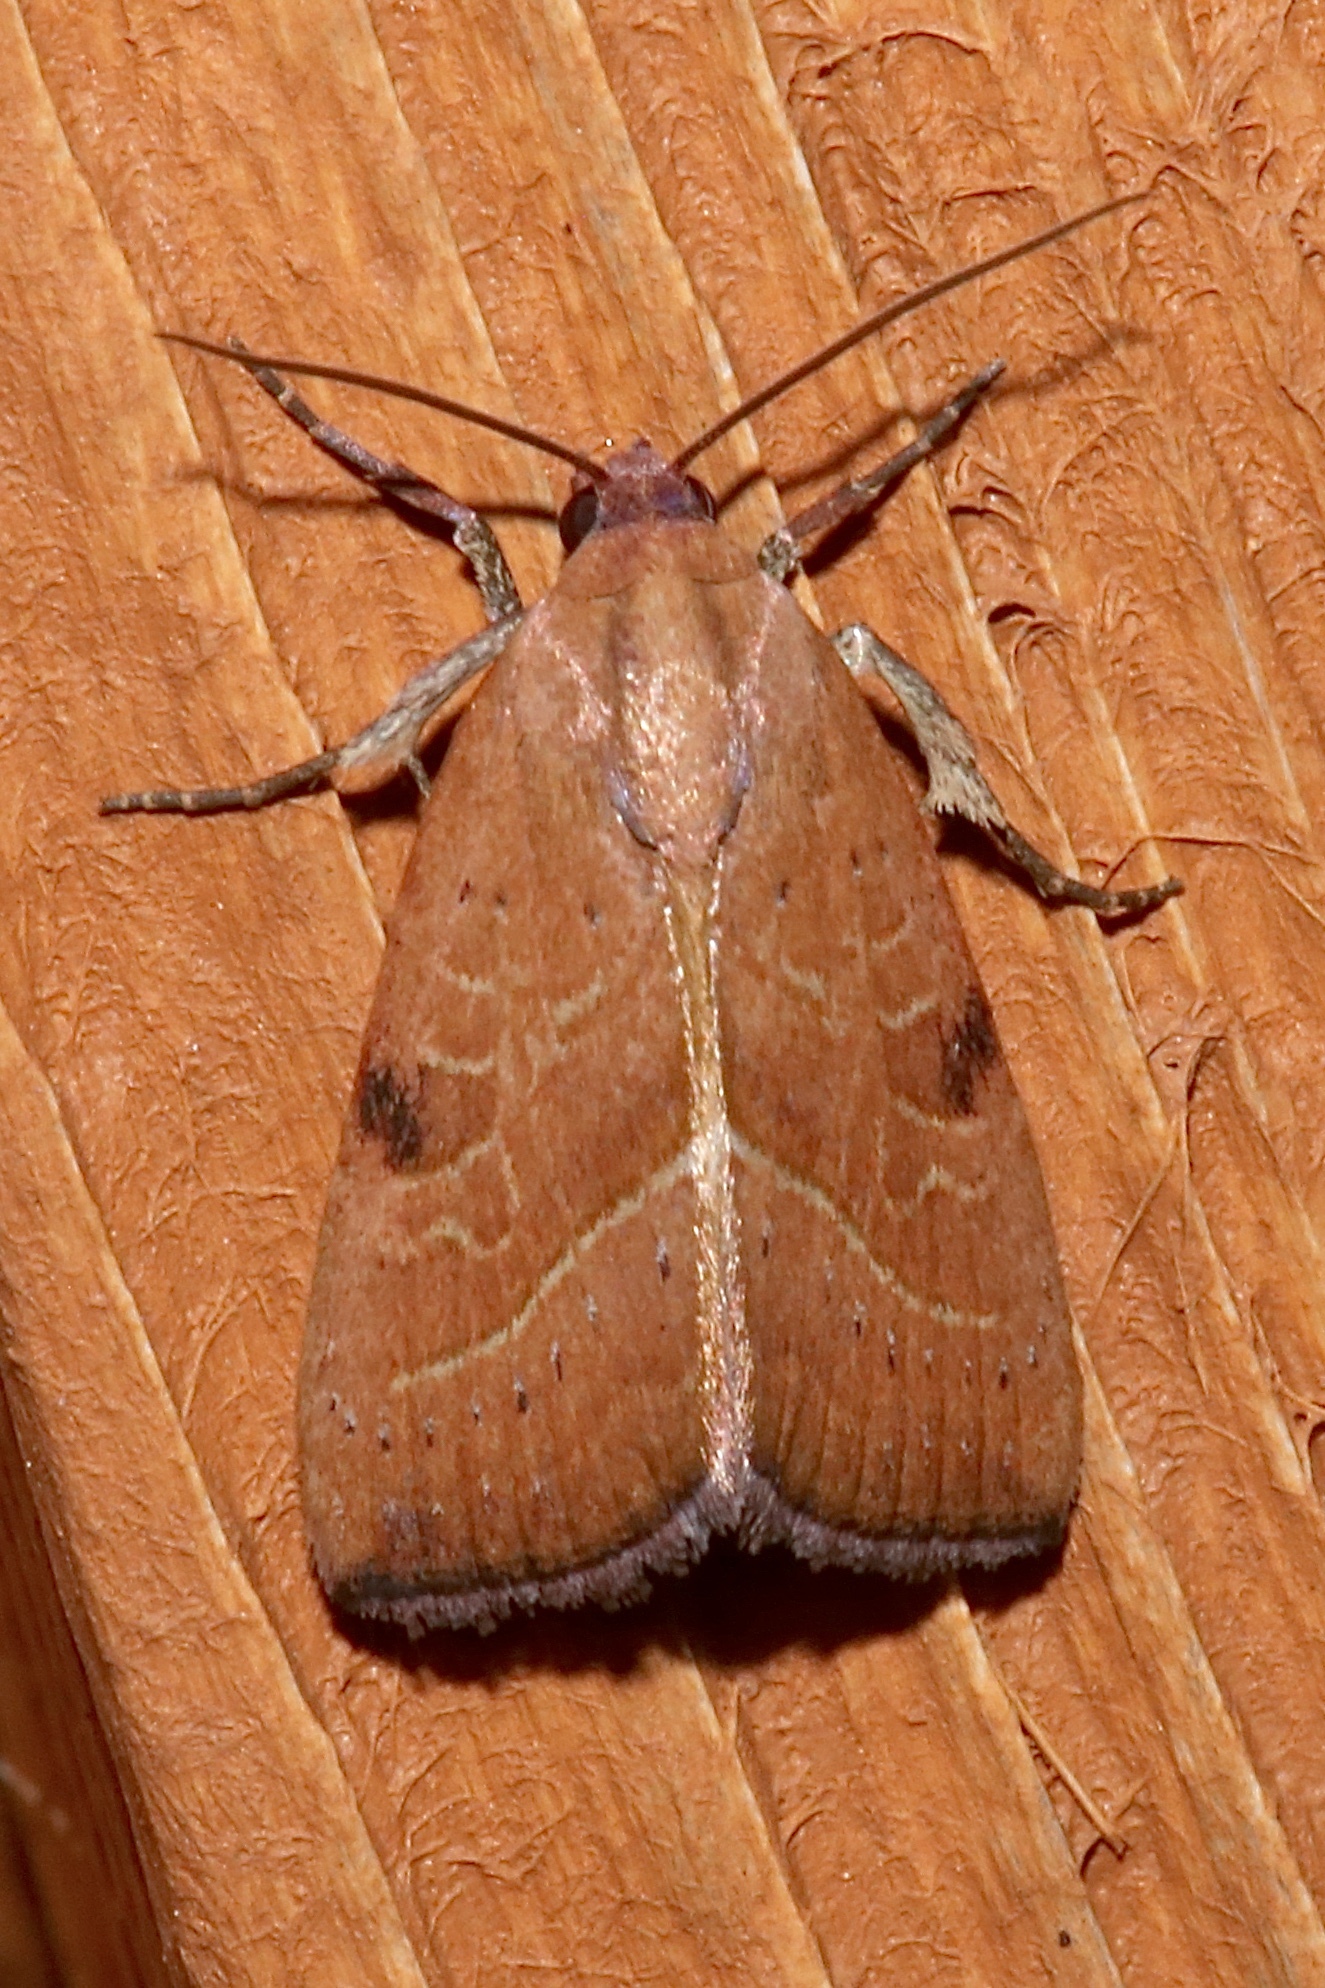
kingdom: Animalia
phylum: Arthropoda
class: Insecta
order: Lepidoptera
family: Noctuidae
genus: Galgula
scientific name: Galgula partita
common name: Wedgeling
